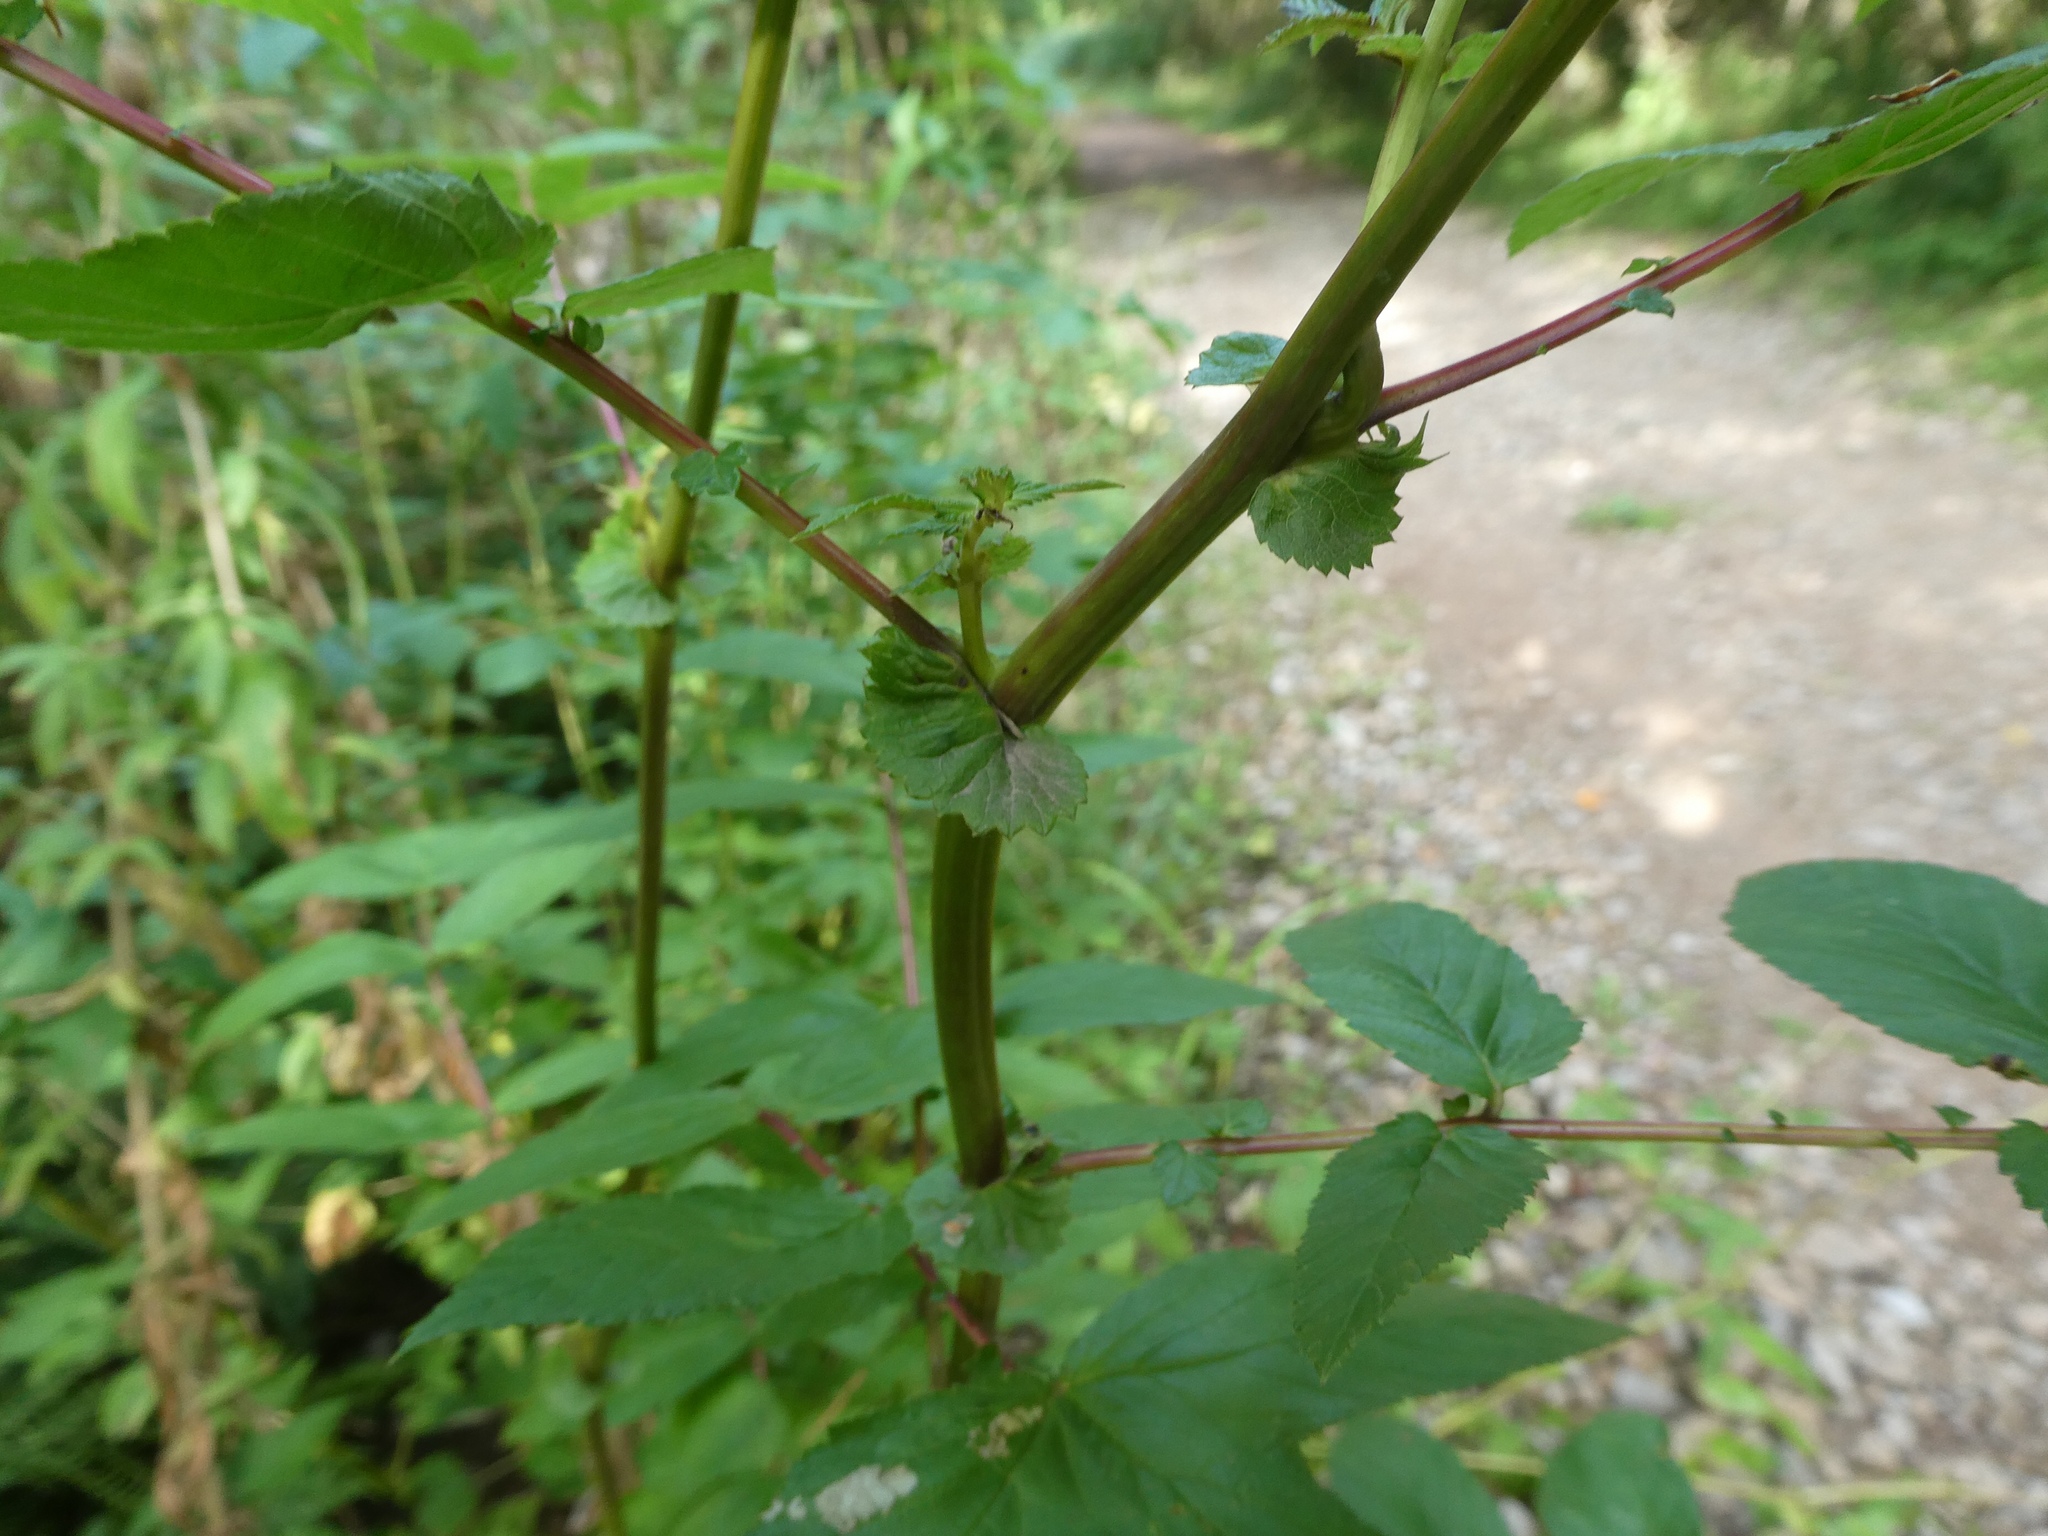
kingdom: Plantae
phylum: Tracheophyta
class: Magnoliopsida
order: Rosales
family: Rosaceae
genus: Filipendula
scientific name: Filipendula ulmaria
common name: Meadowsweet
